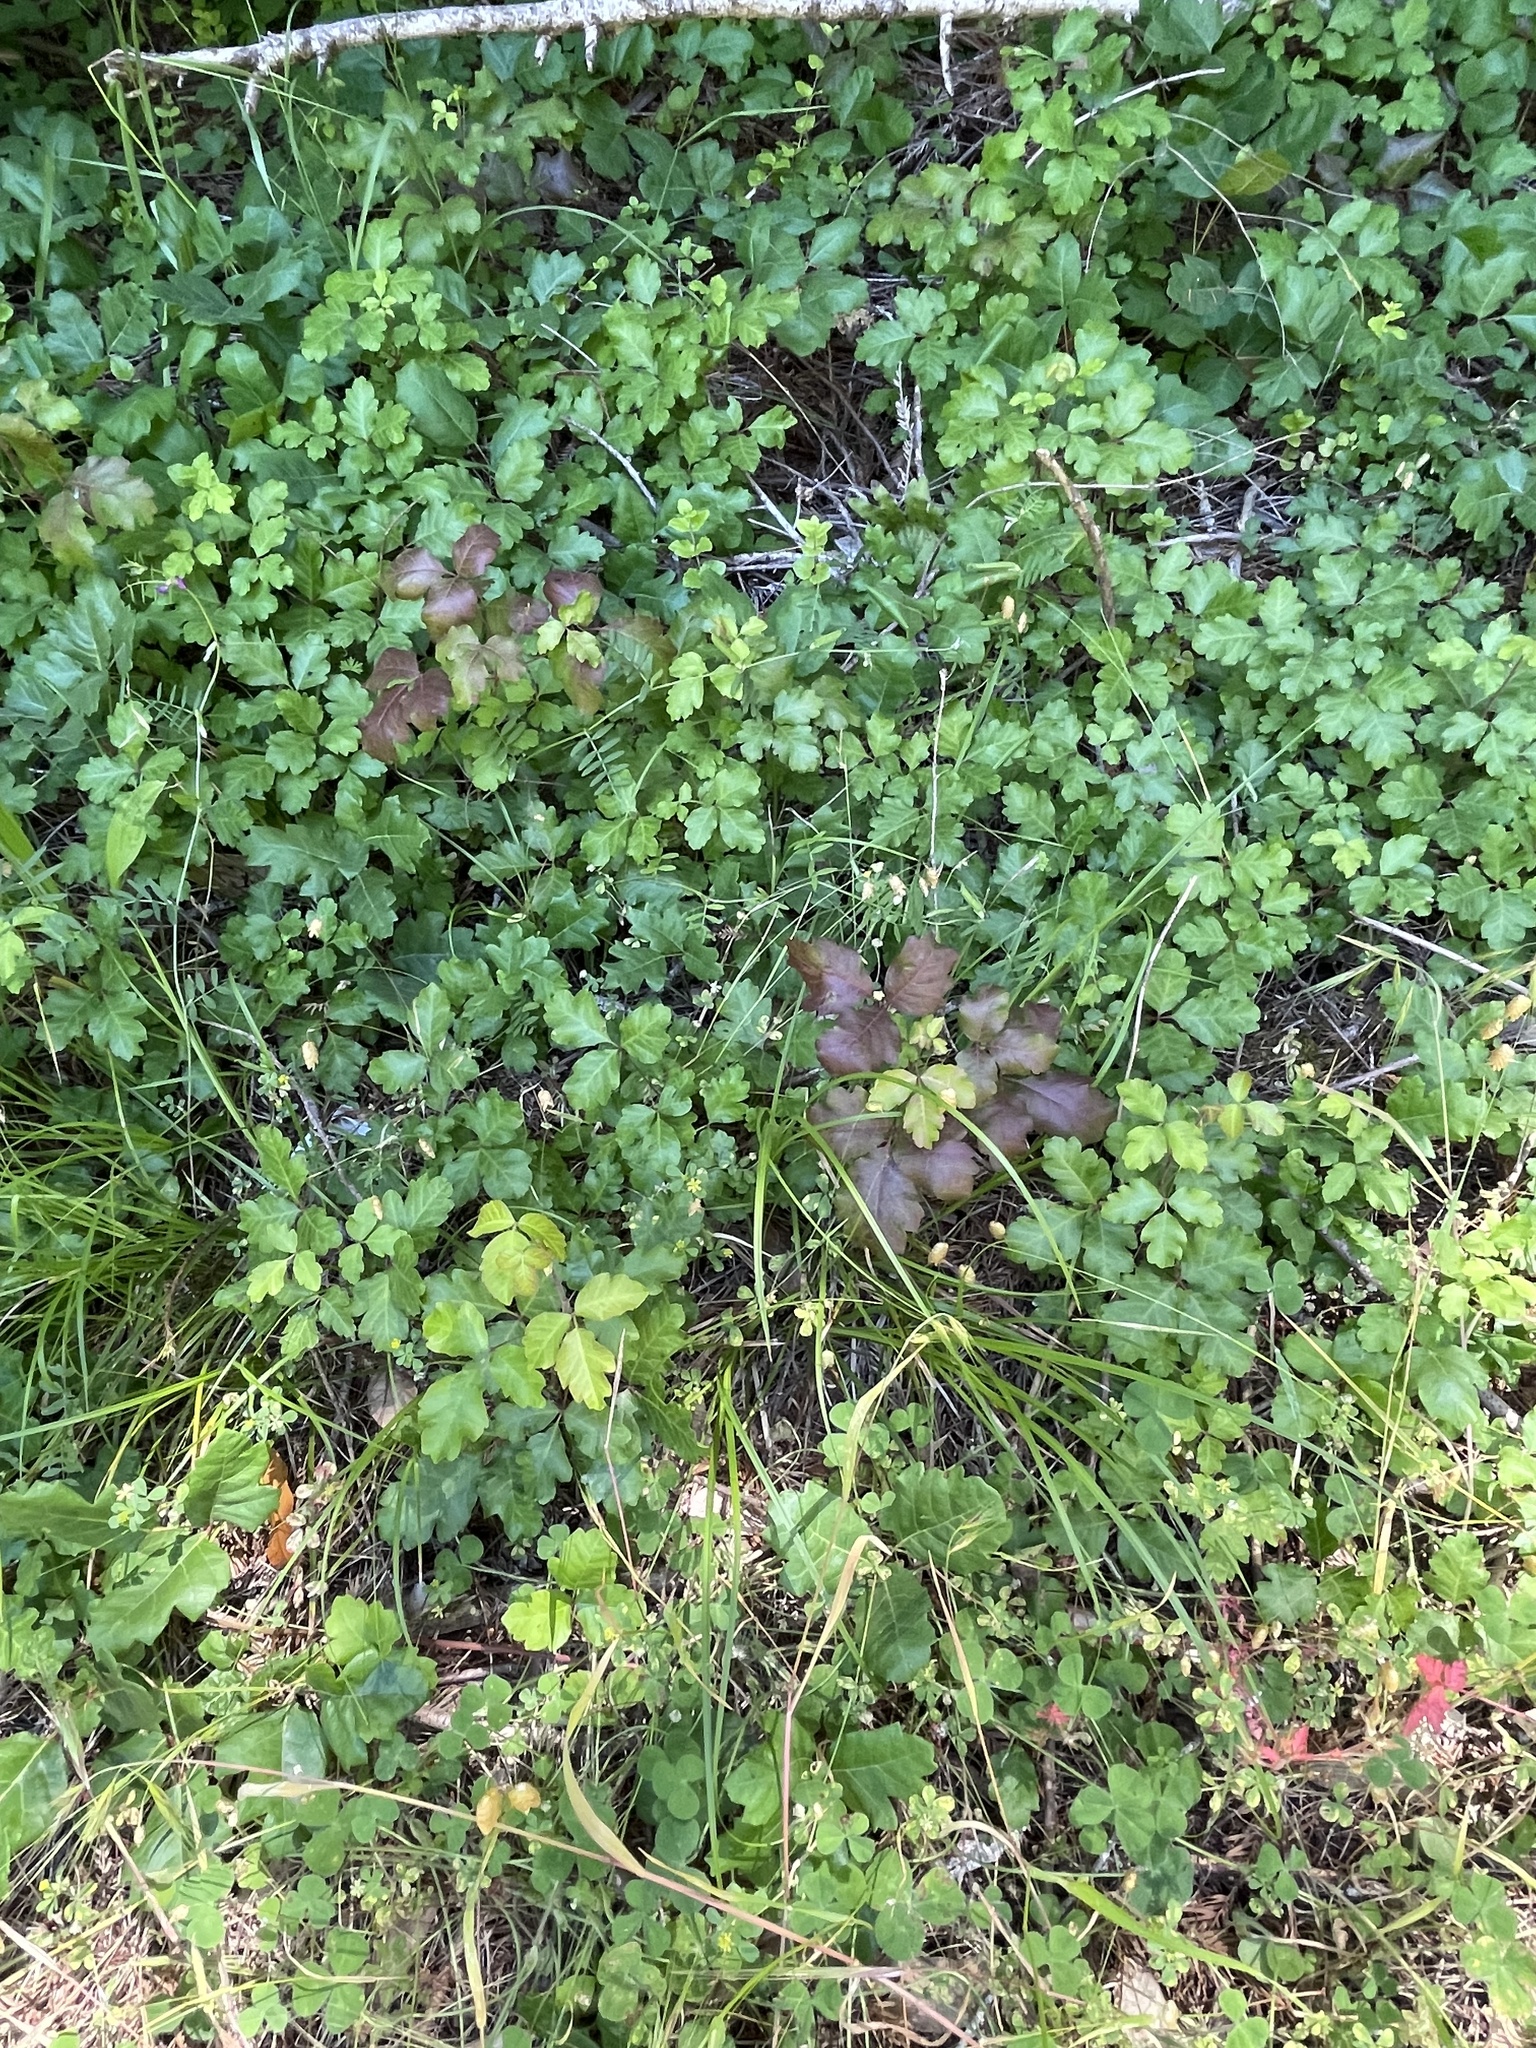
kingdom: Plantae
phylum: Tracheophyta
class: Magnoliopsida
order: Sapindales
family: Anacardiaceae
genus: Toxicodendron
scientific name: Toxicodendron diversilobum
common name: Pacific poison-oak
